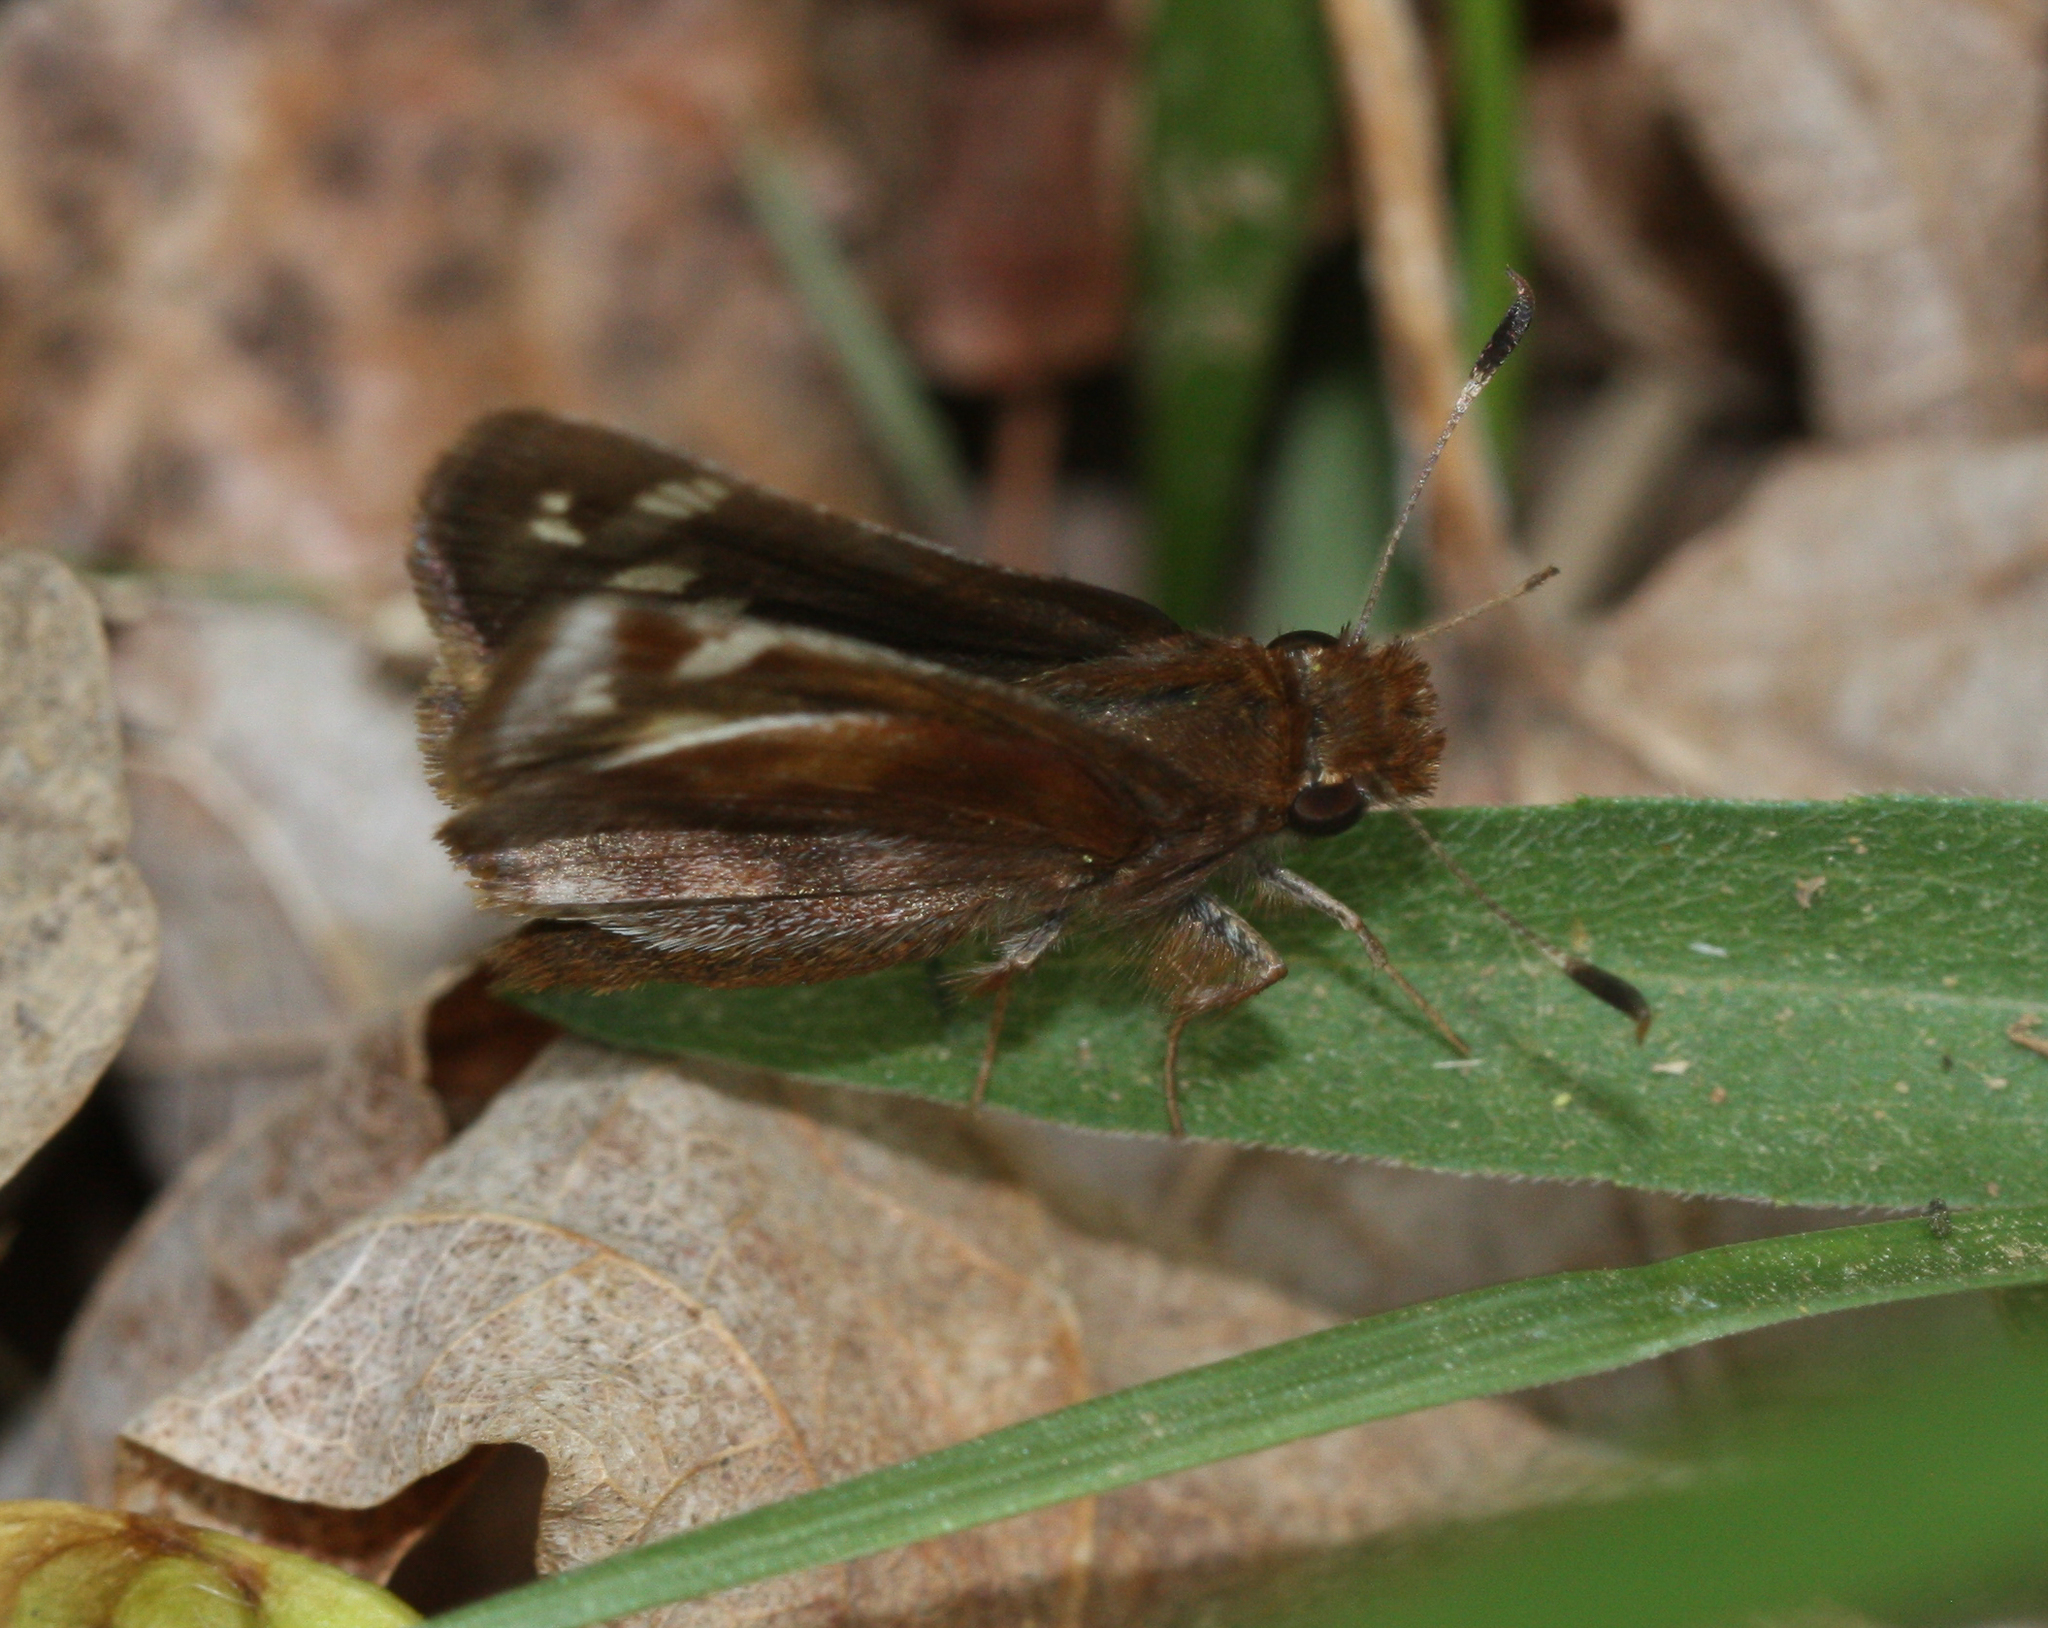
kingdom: Animalia
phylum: Arthropoda
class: Insecta
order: Lepidoptera
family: Hesperiidae
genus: Lon
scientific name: Lon zabulon
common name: Zabulon skipper
